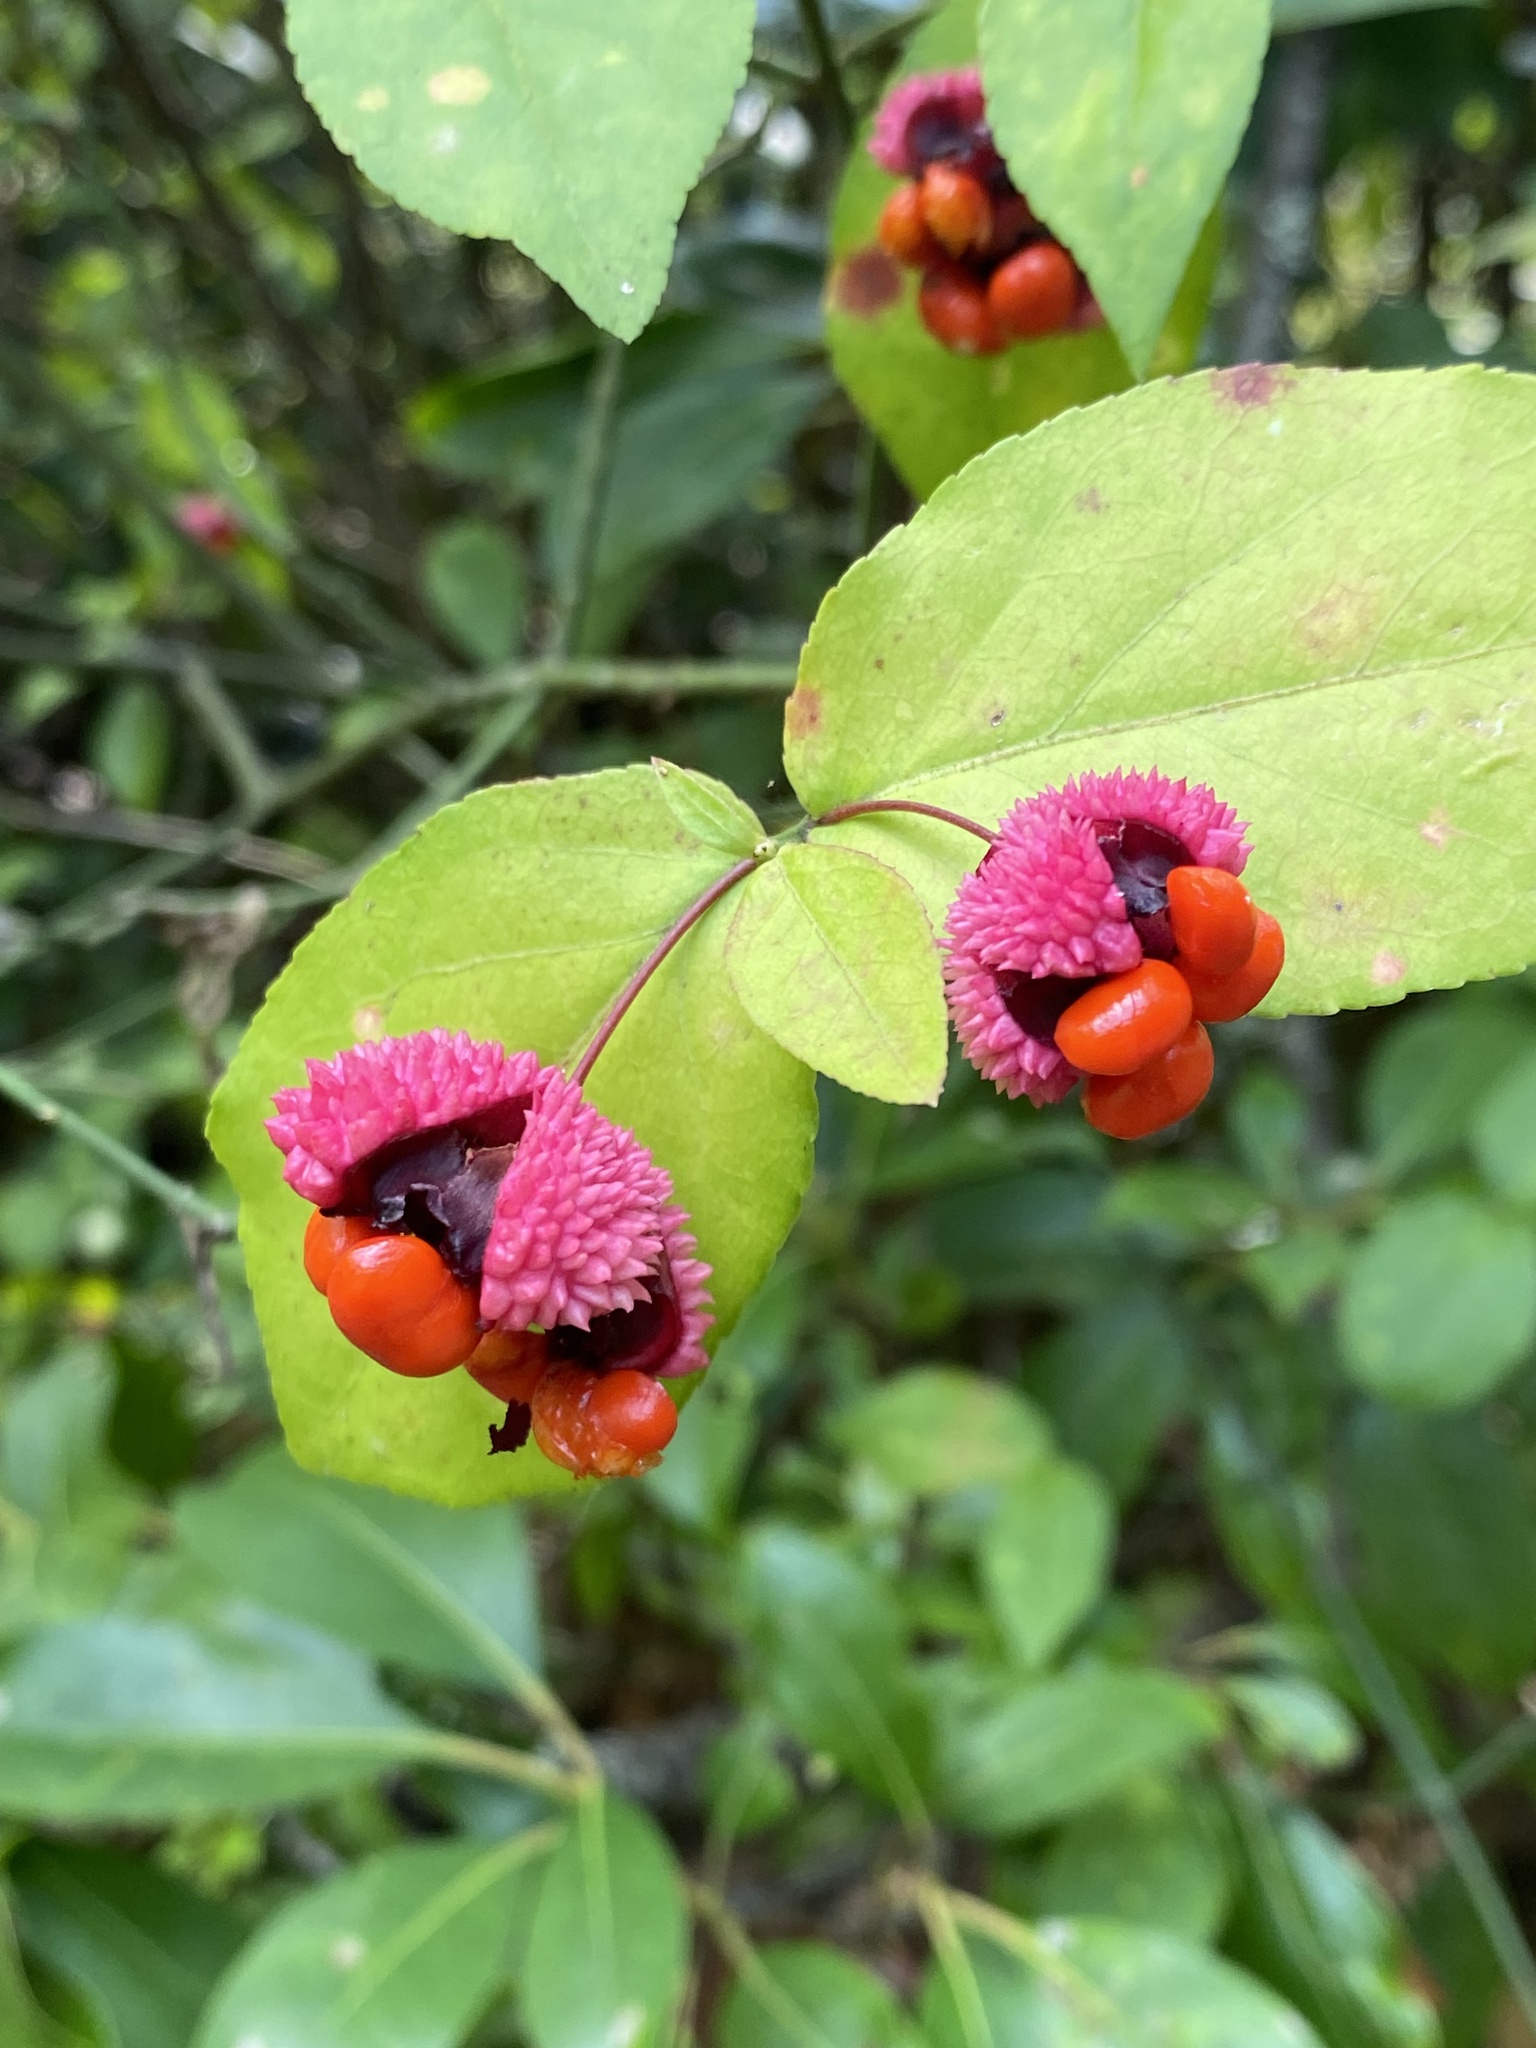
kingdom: Plantae
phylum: Tracheophyta
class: Magnoliopsida
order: Celastrales
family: Celastraceae
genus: Euonymus
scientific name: Euonymus americanus
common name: Bursting-heart
